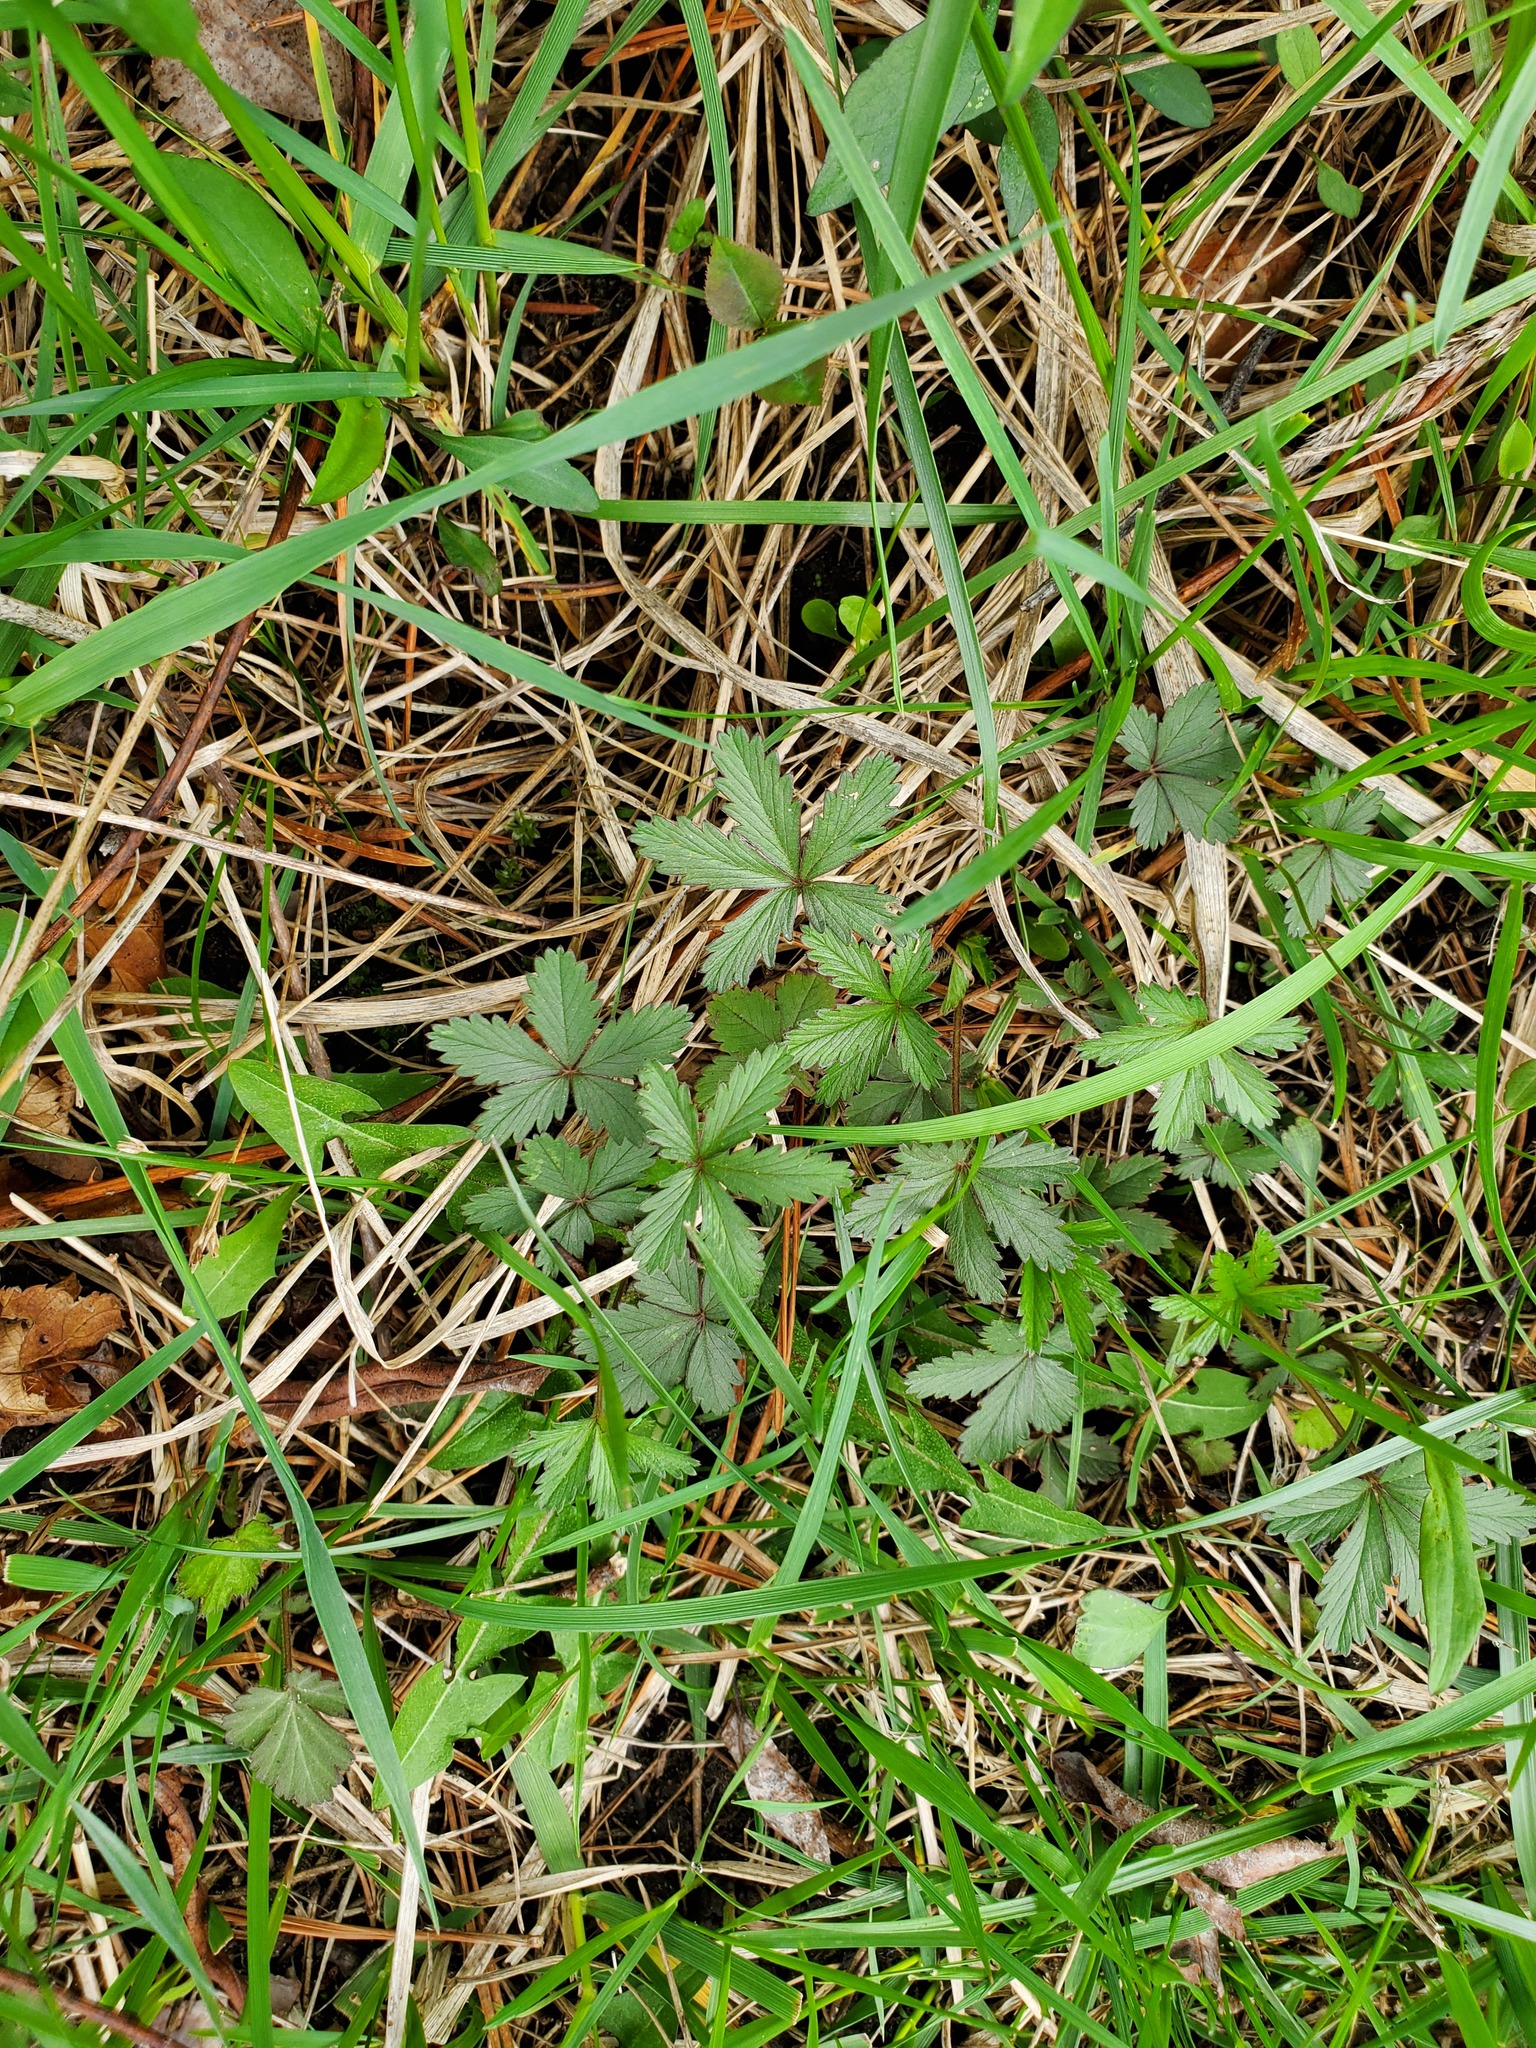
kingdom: Plantae
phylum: Tracheophyta
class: Magnoliopsida
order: Rosales
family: Rosaceae
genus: Potentilla
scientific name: Potentilla simplex
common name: Old field cinquefoil
